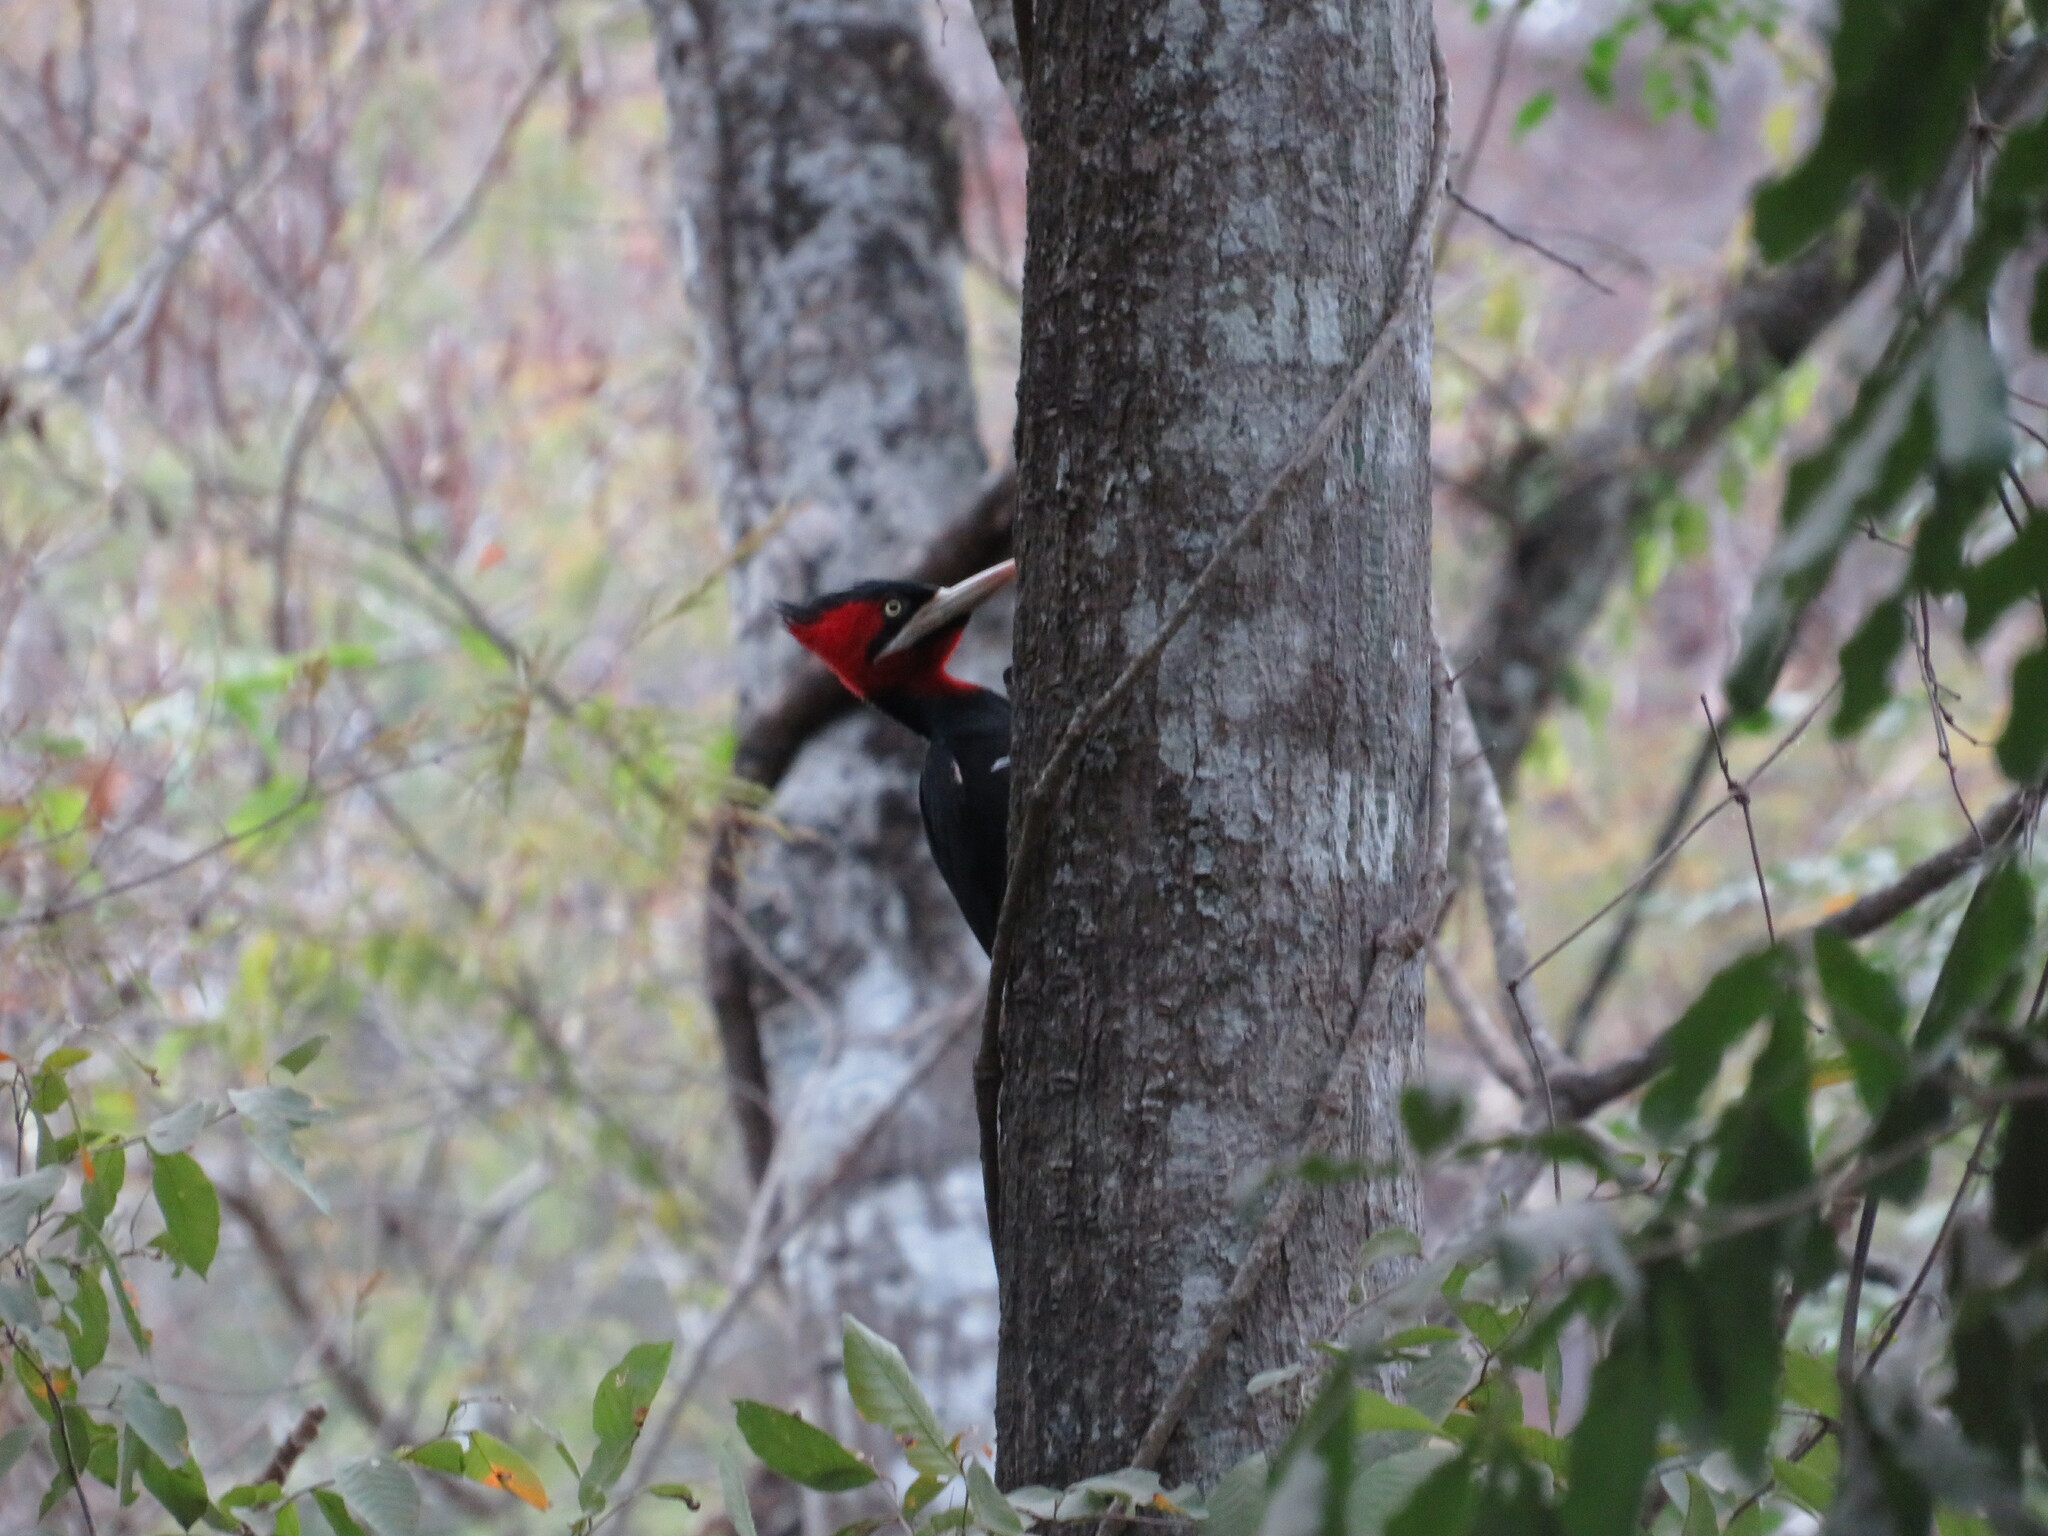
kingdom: Animalia
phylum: Chordata
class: Aves
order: Piciformes
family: Picidae
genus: Campephilus
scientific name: Campephilus leucopogon
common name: Cream-backed woodpecker
